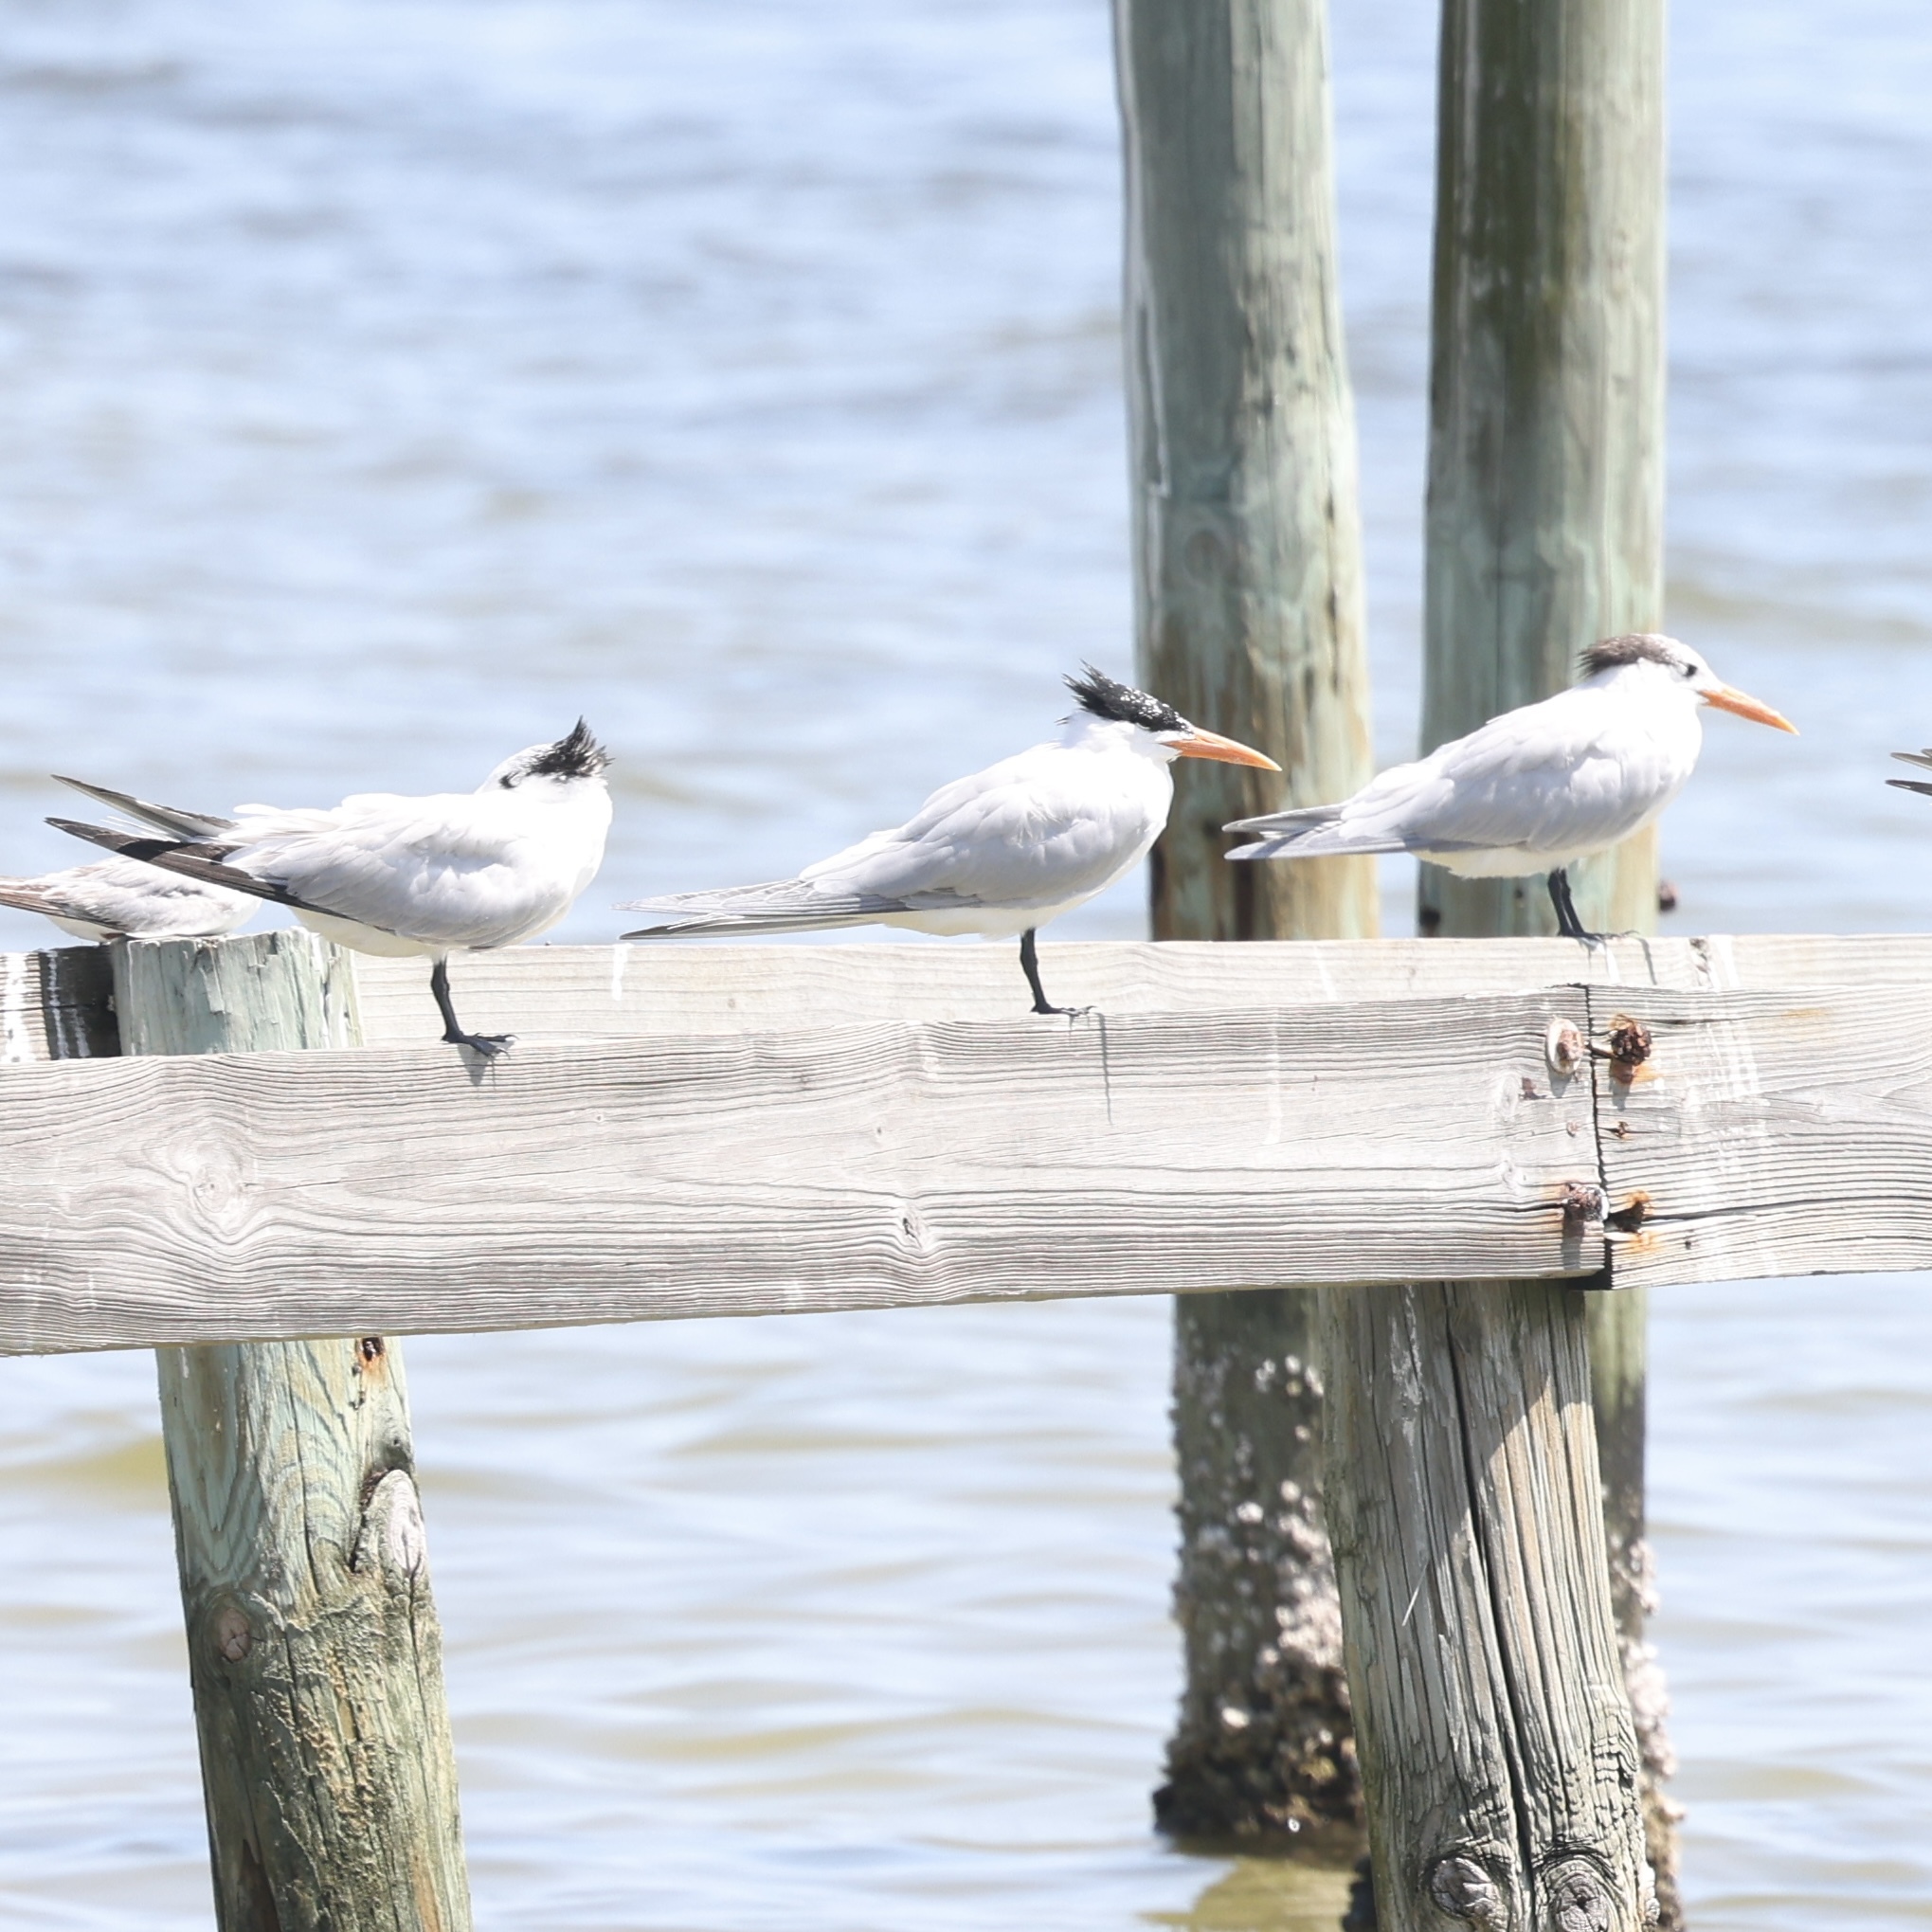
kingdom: Animalia
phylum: Chordata
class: Aves
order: Charadriiformes
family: Laridae
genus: Thalasseus
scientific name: Thalasseus maximus
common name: Royal tern
